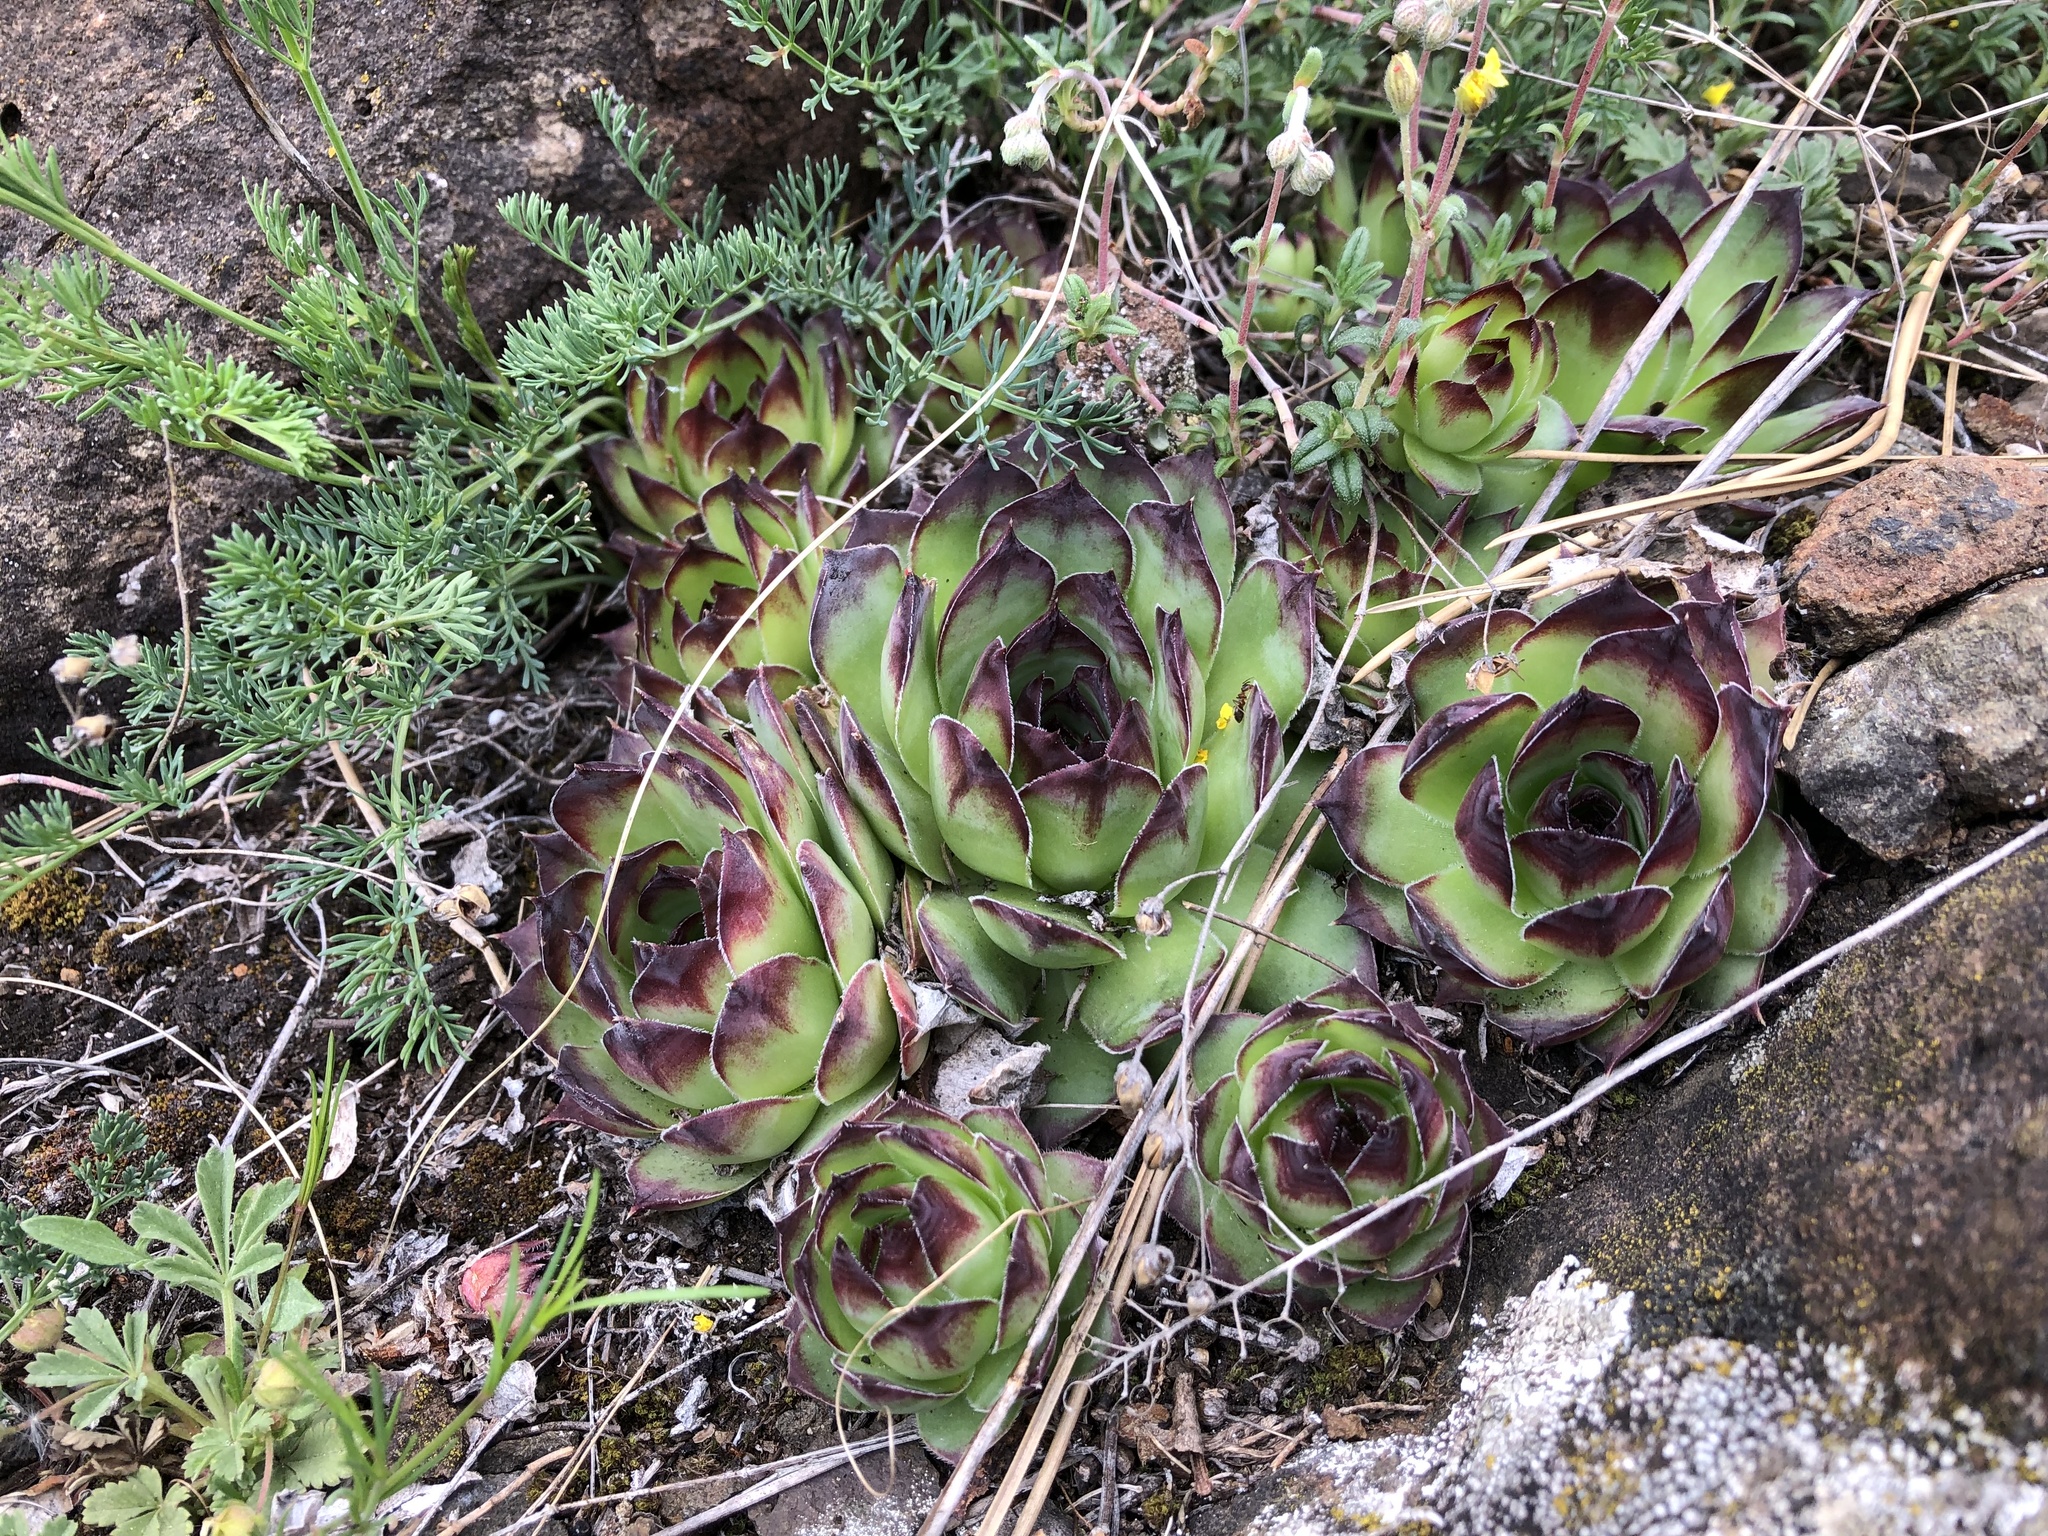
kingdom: Plantae
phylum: Tracheophyta
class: Magnoliopsida
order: Saxifragales
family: Crassulaceae
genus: Sempervivum
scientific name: Sempervivum tectorum
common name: House-leek
